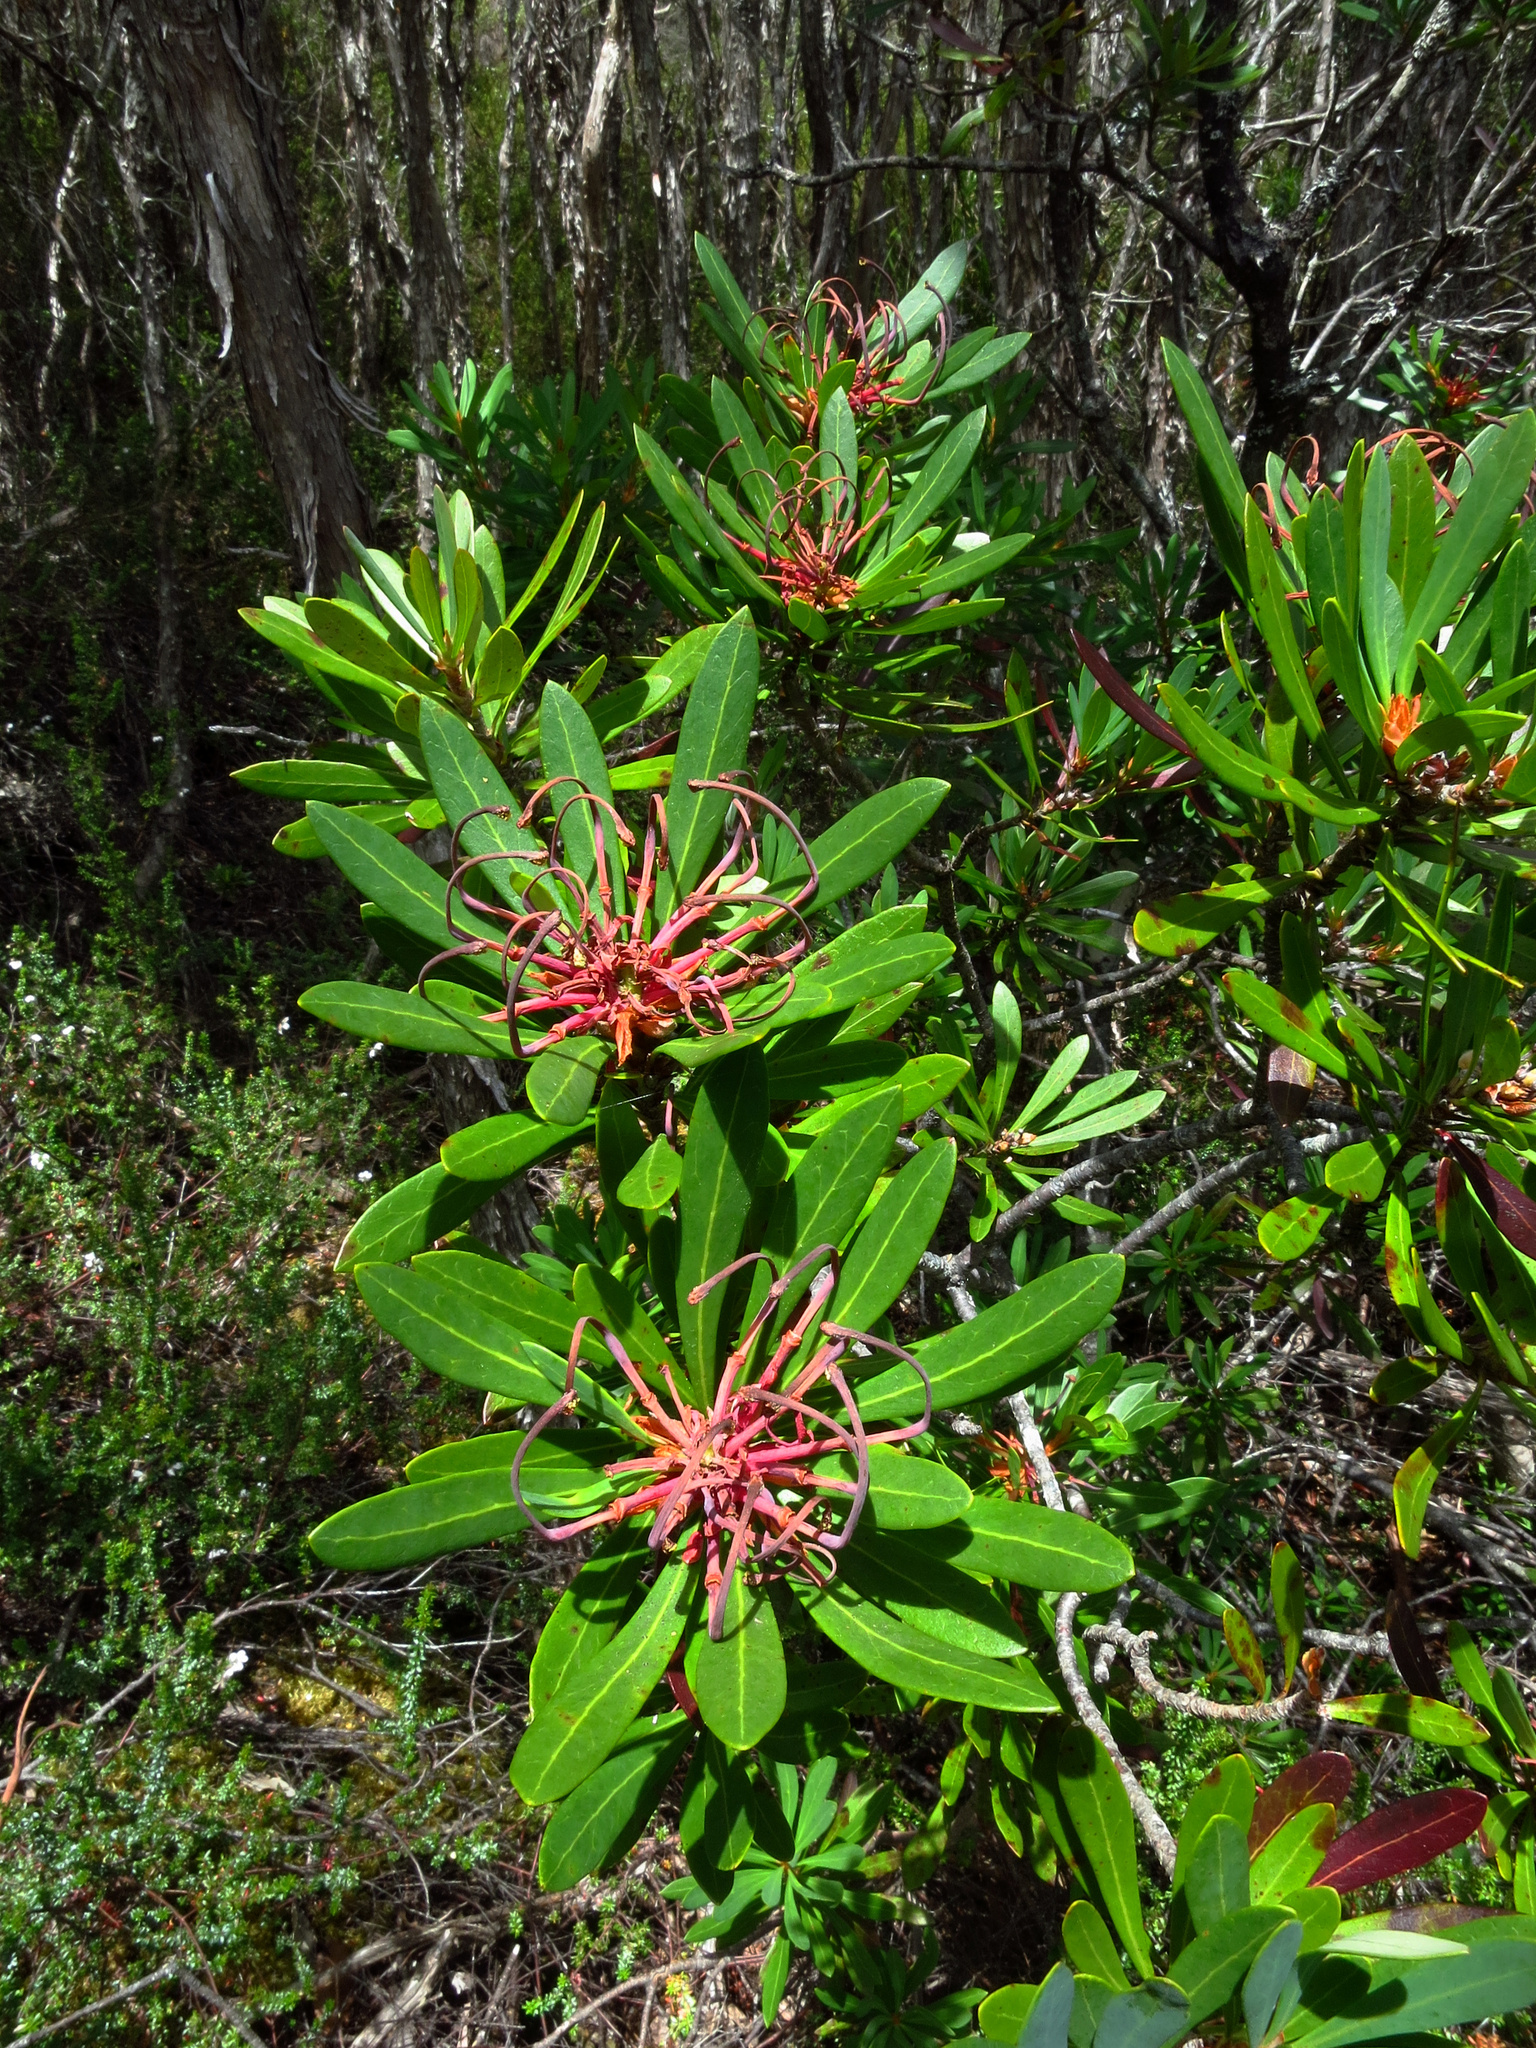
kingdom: Plantae
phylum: Tracheophyta
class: Magnoliopsida
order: Proteales
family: Proteaceae
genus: Telopea
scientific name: Telopea truncata
